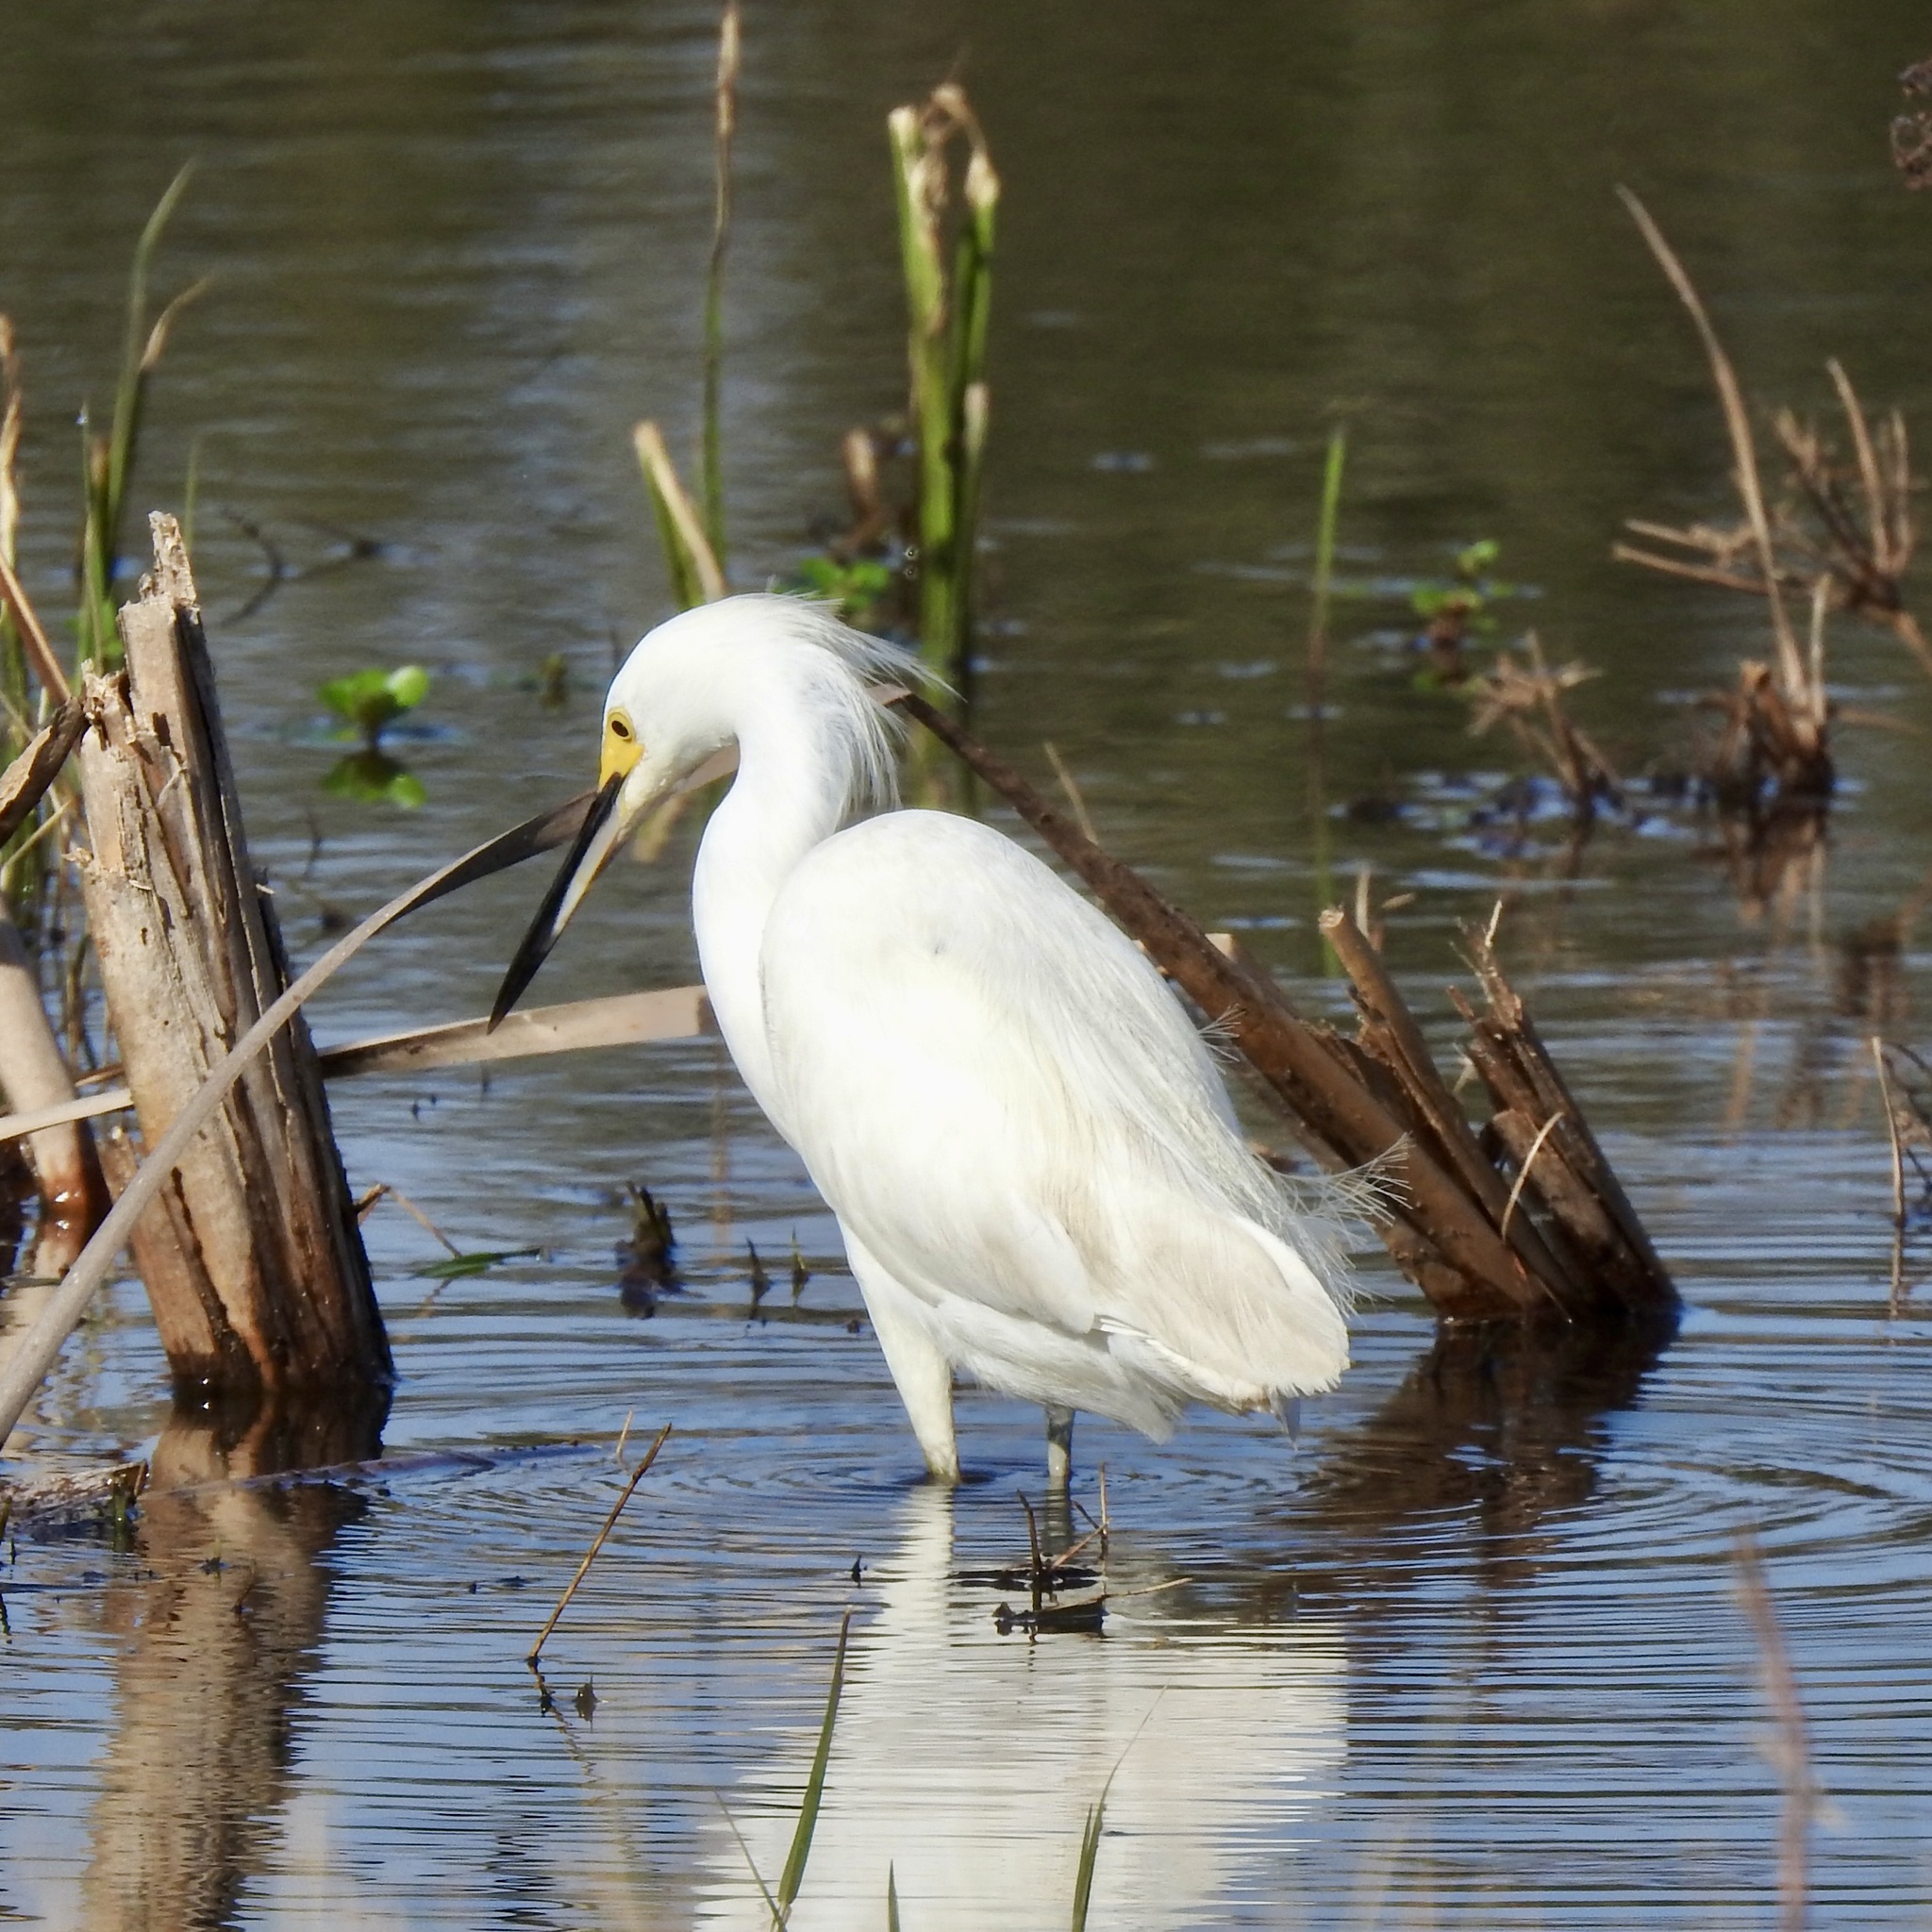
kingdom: Animalia
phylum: Chordata
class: Aves
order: Pelecaniformes
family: Ardeidae
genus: Egretta
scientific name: Egretta thula
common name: Snowy egret
